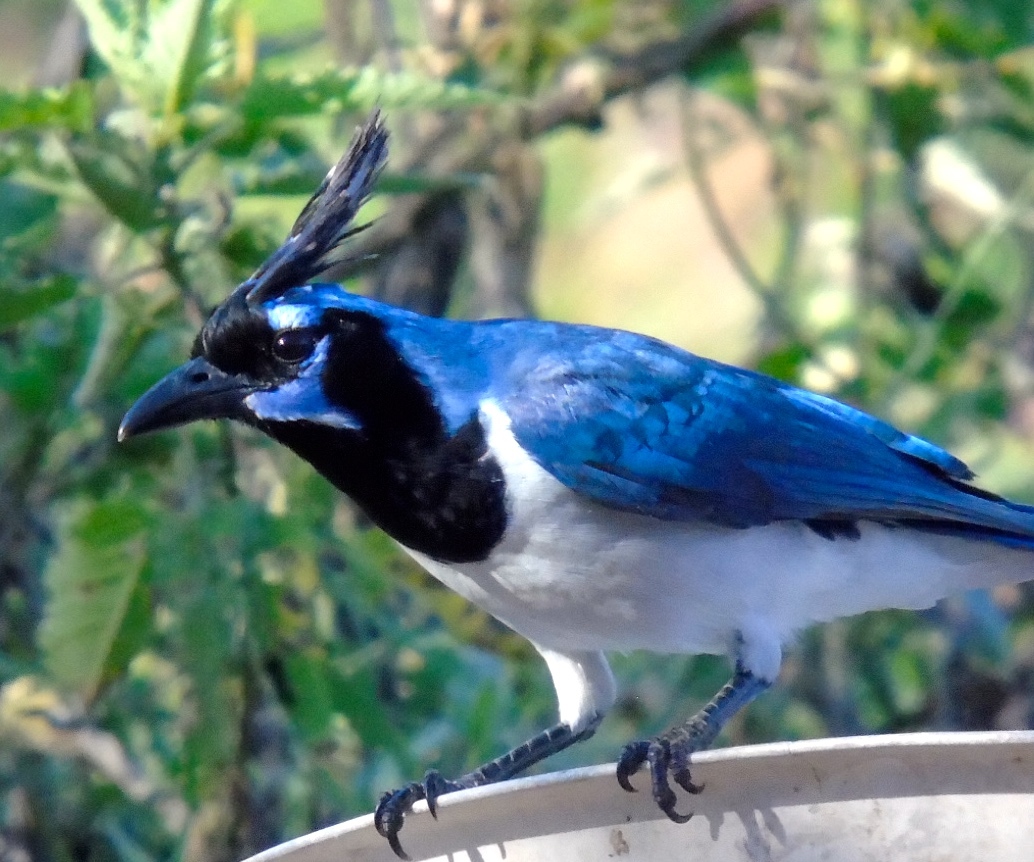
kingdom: Animalia
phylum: Chordata
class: Aves
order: Passeriformes
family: Corvidae
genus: Calocitta
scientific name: Calocitta colliei
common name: Black-throated magpie-jay
